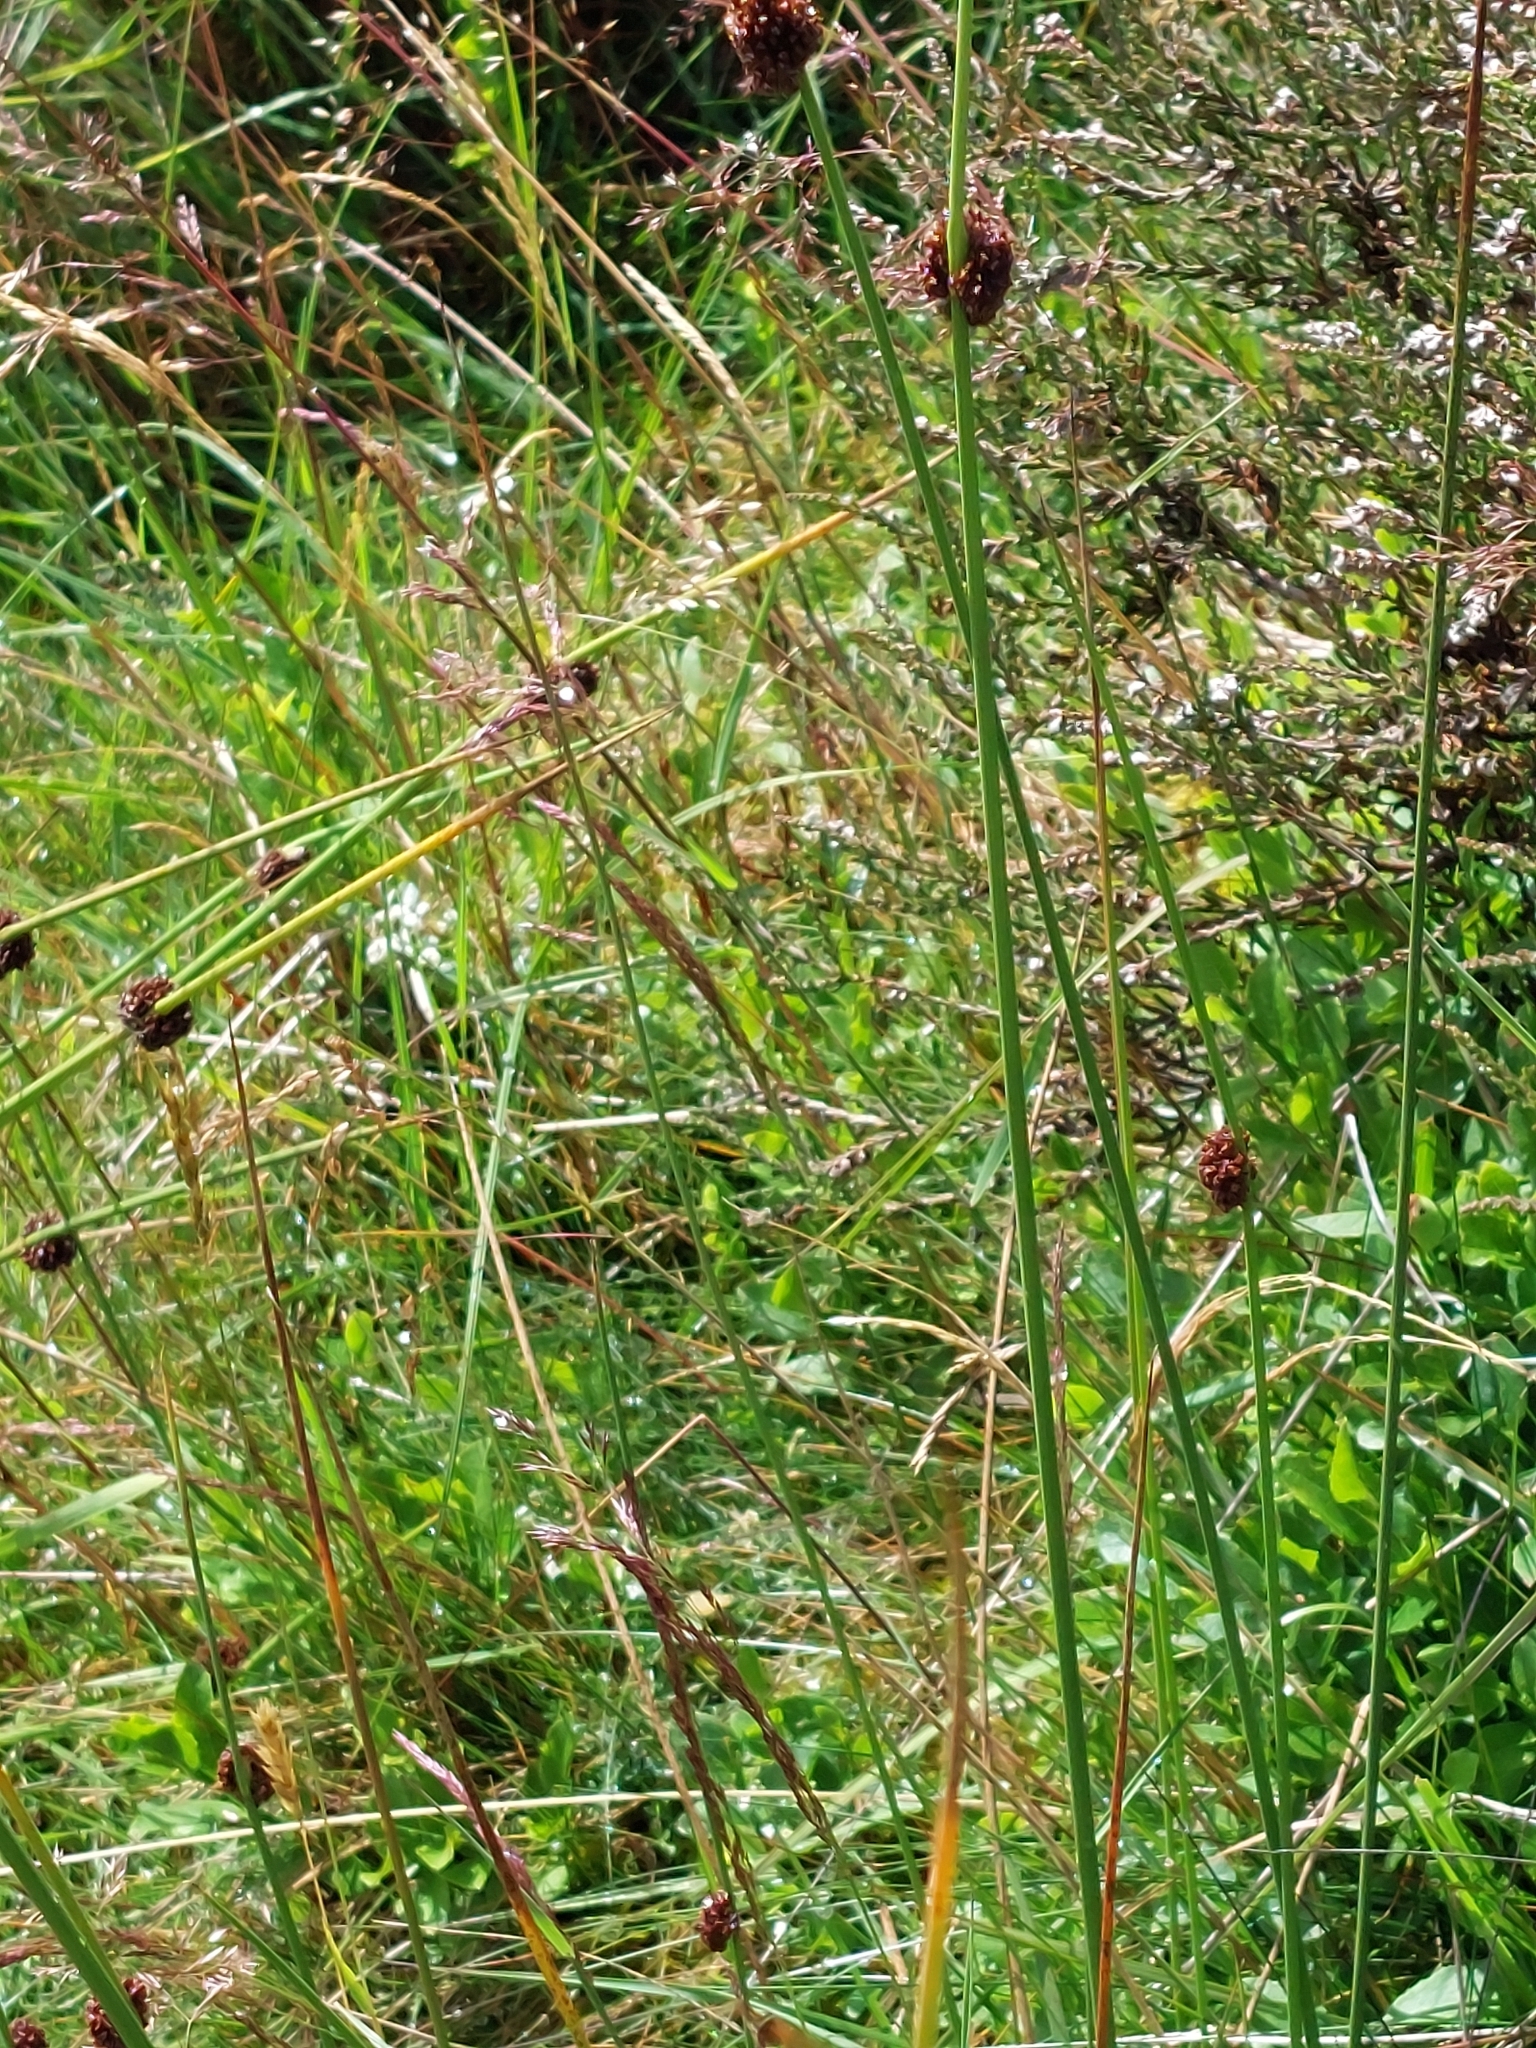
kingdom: Plantae
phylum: Tracheophyta
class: Liliopsida
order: Poales
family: Juncaceae
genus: Juncus
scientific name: Juncus conglomeratus
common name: Compact rush
